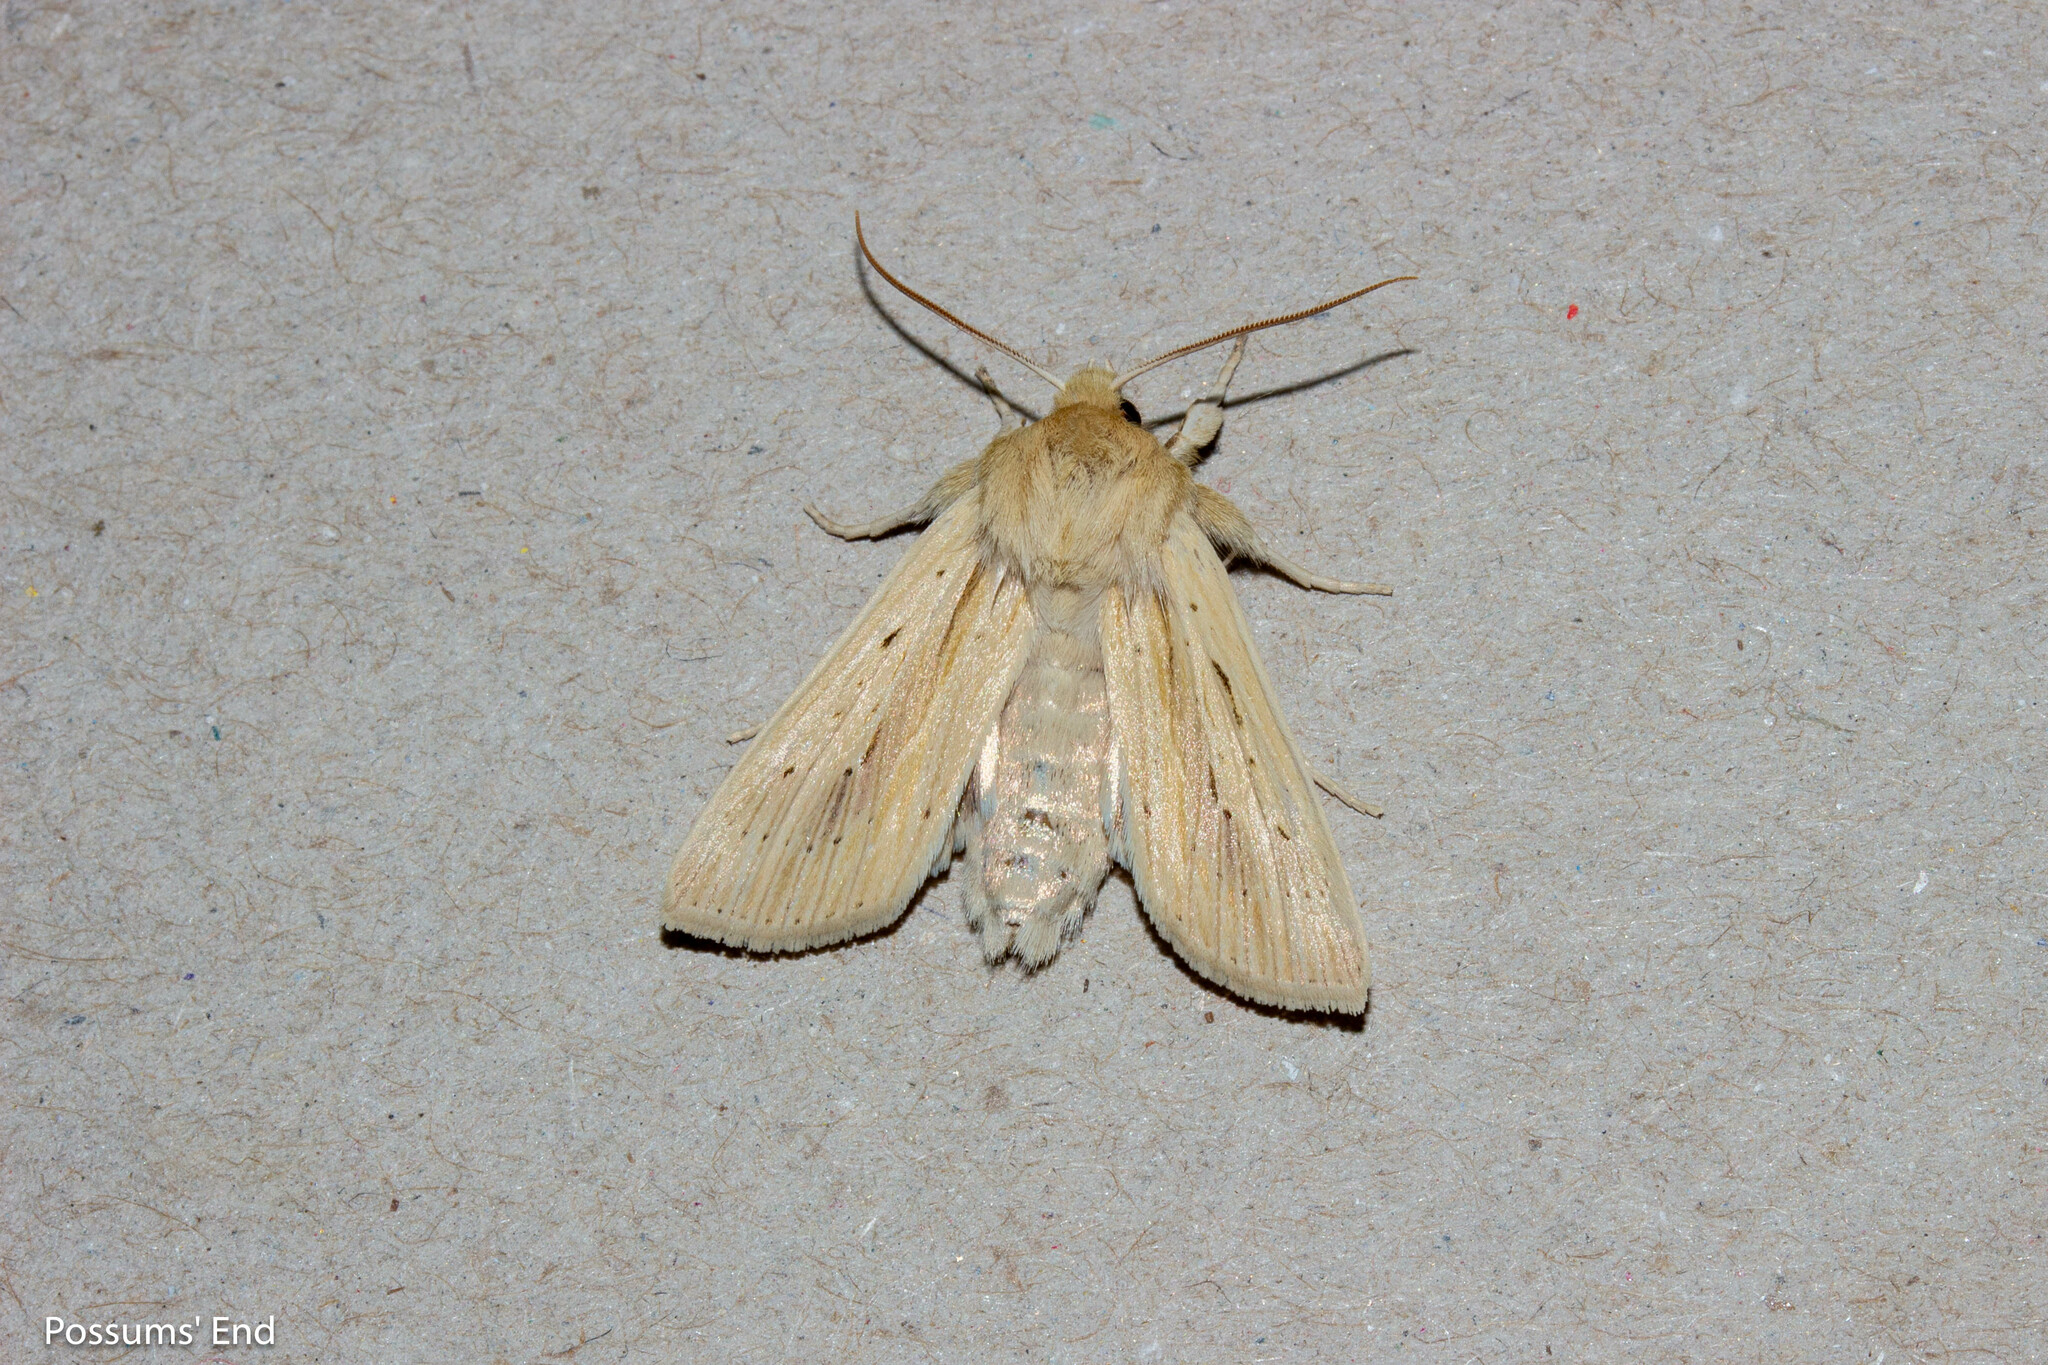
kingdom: Animalia
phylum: Arthropoda
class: Insecta
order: Lepidoptera
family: Noctuidae
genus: Ichneutica
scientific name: Ichneutica semivittata
